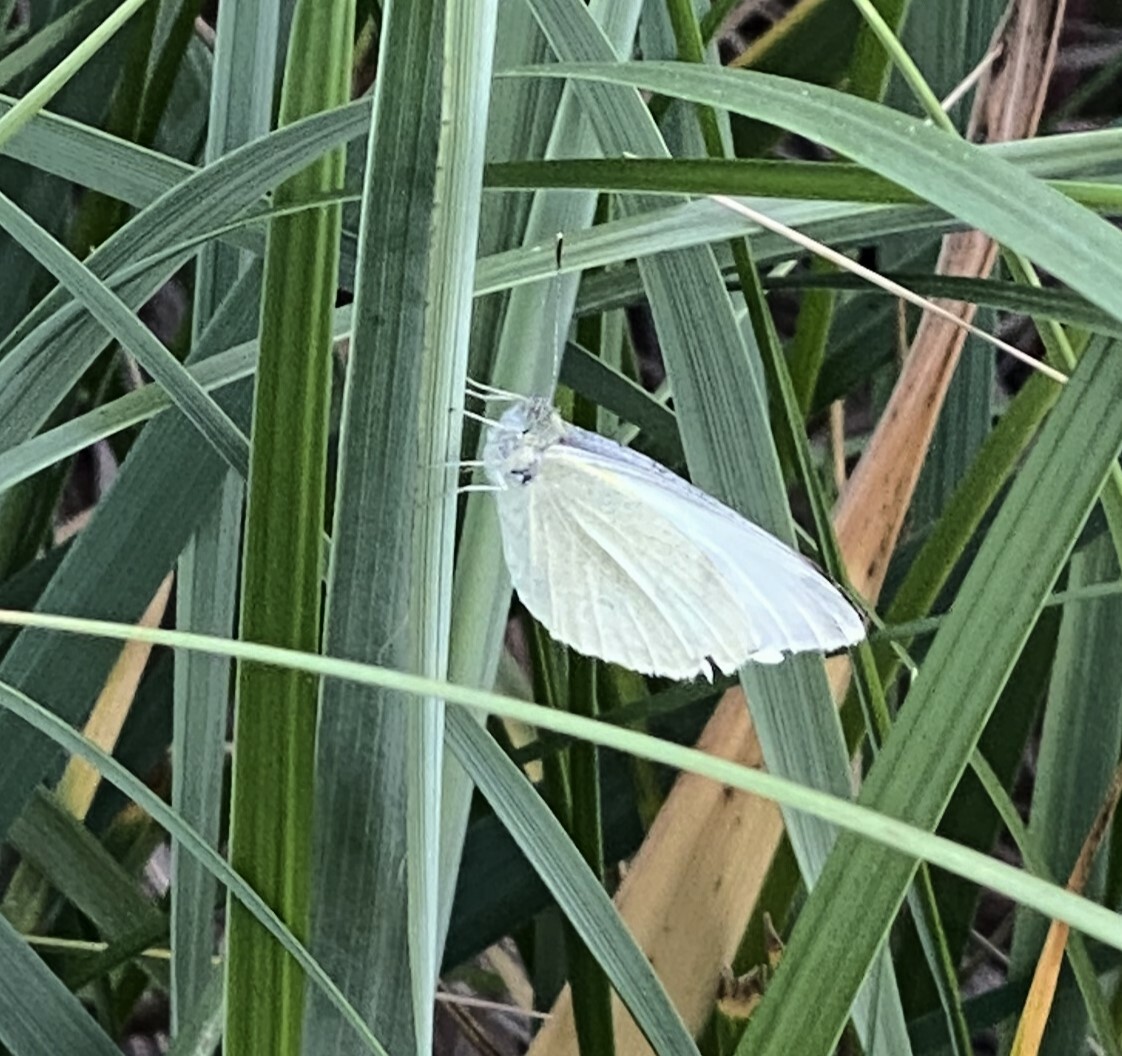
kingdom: Animalia
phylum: Arthropoda
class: Insecta
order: Lepidoptera
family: Pieridae
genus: Pieris
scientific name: Pieris rapae
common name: Small white
